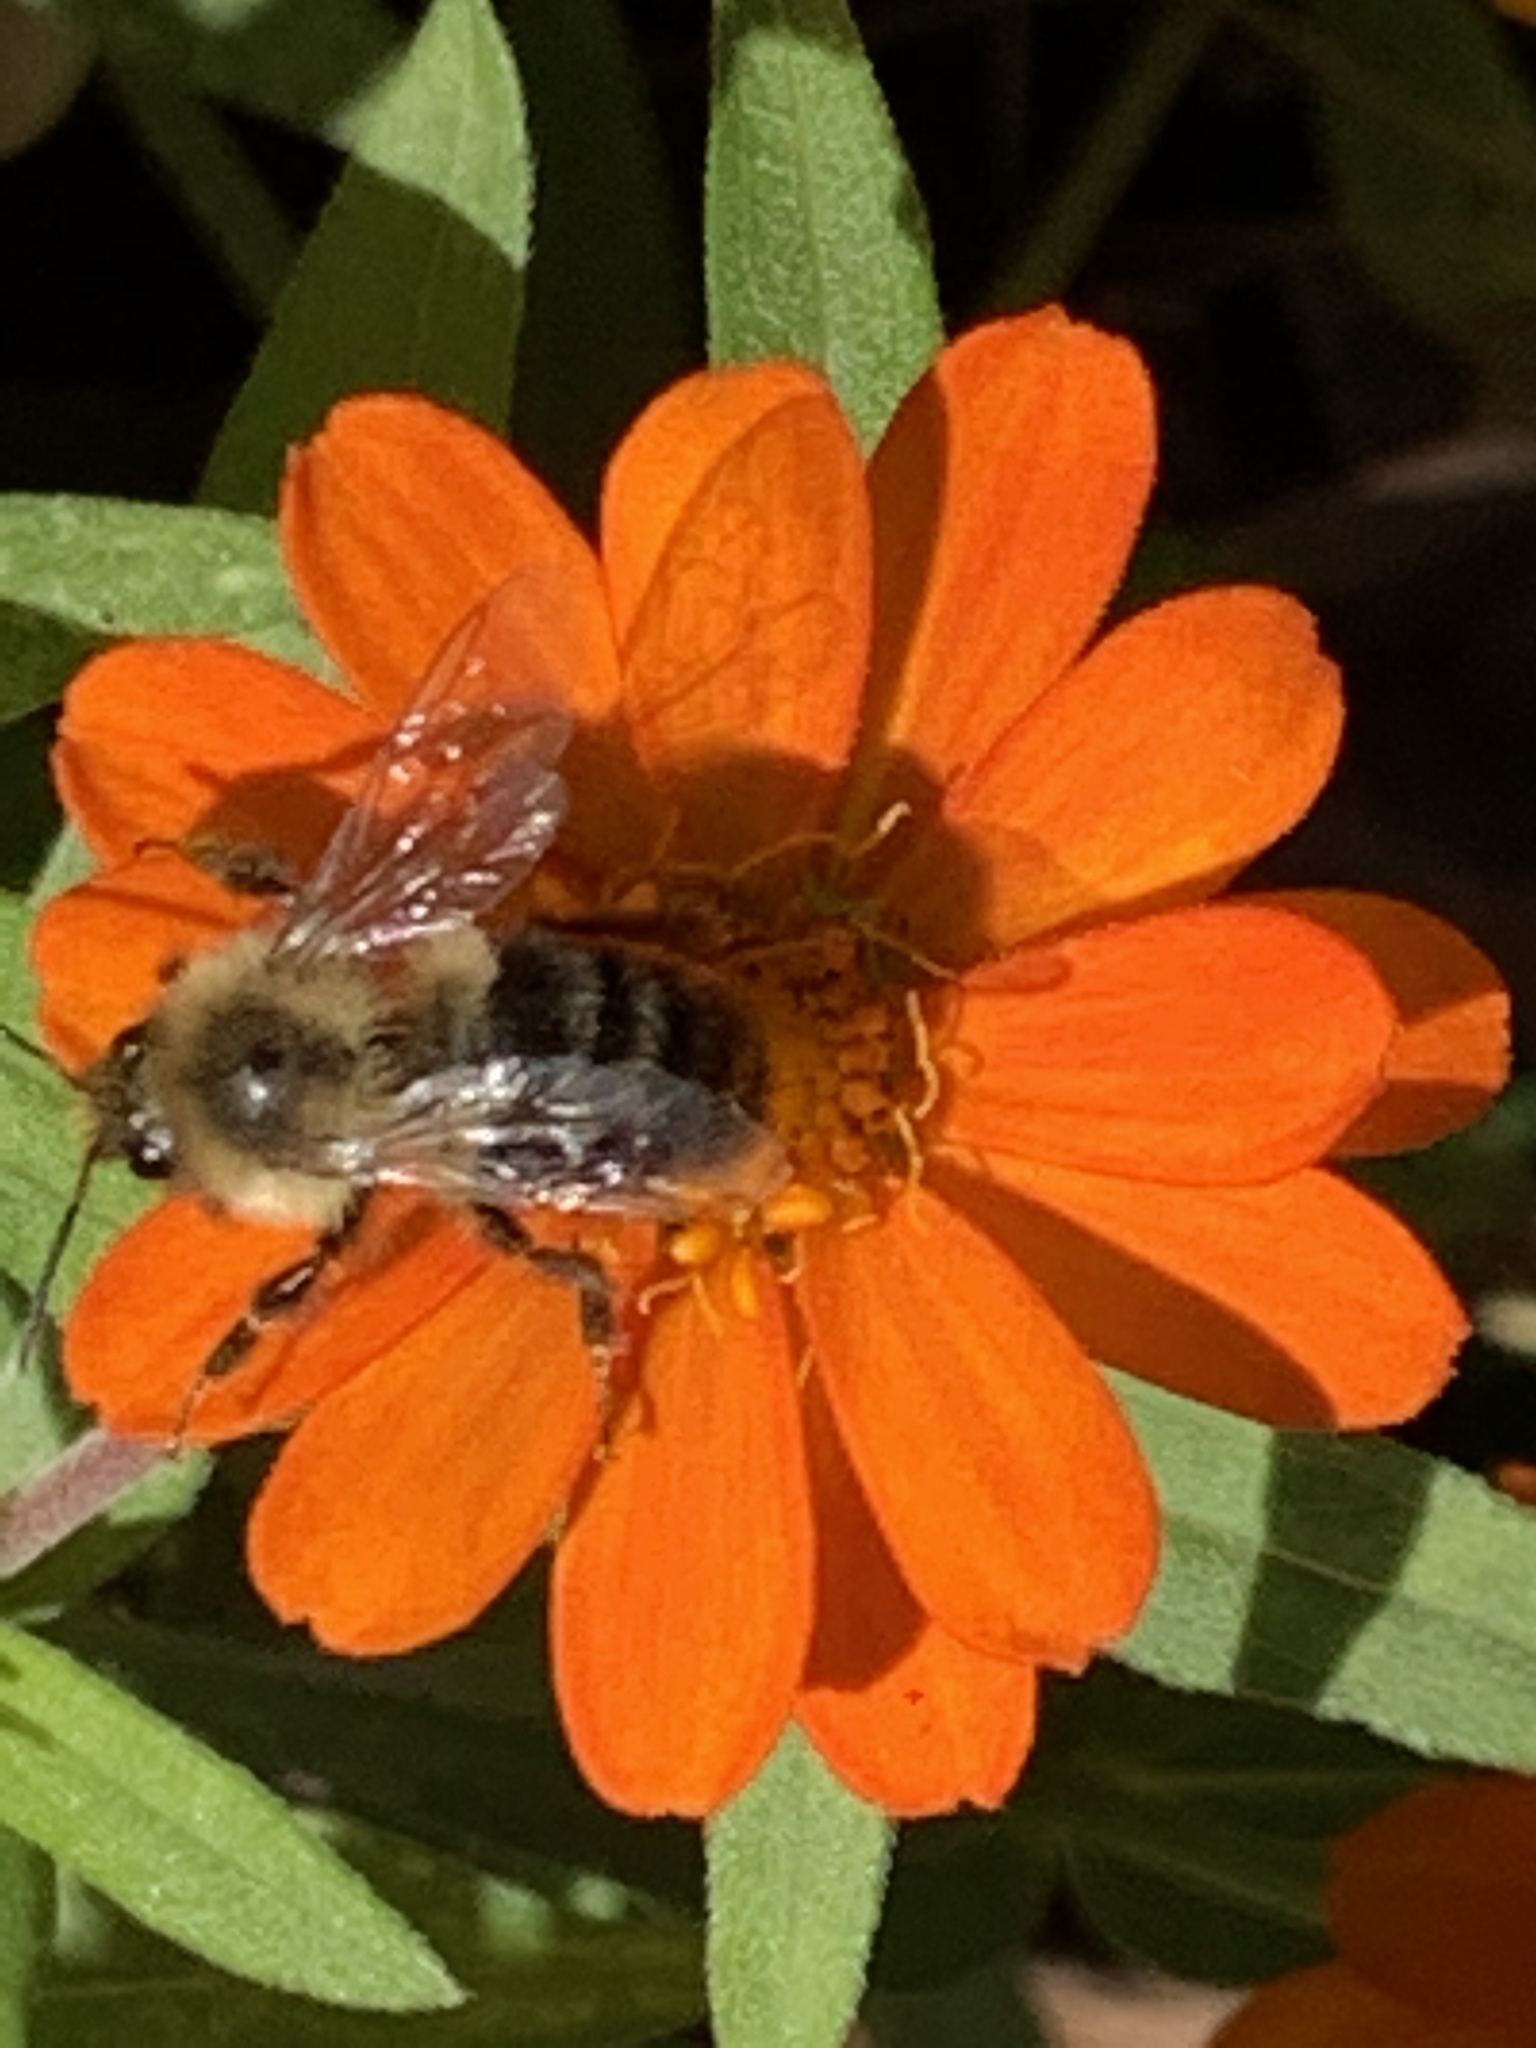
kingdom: Animalia
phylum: Arthropoda
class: Insecta
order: Hymenoptera
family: Apidae
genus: Bombus
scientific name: Bombus impatiens
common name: Common eastern bumble bee
